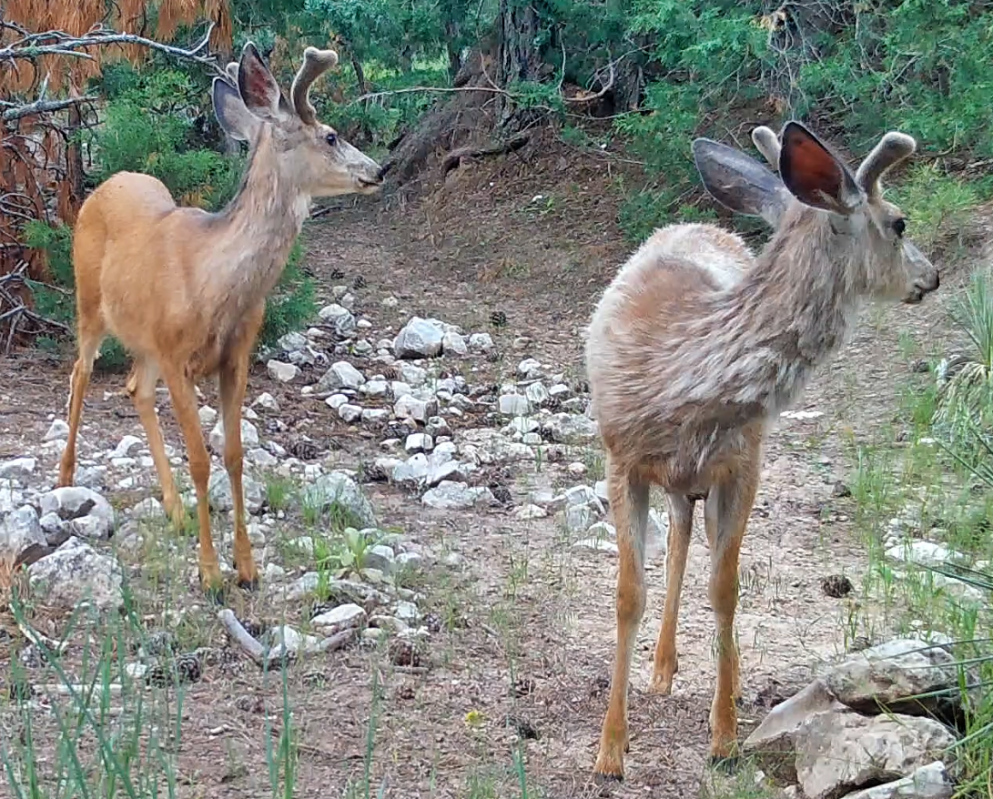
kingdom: Animalia
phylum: Chordata
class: Mammalia
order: Artiodactyla
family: Cervidae
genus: Odocoileus
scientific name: Odocoileus hemionus
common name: Mule deer
